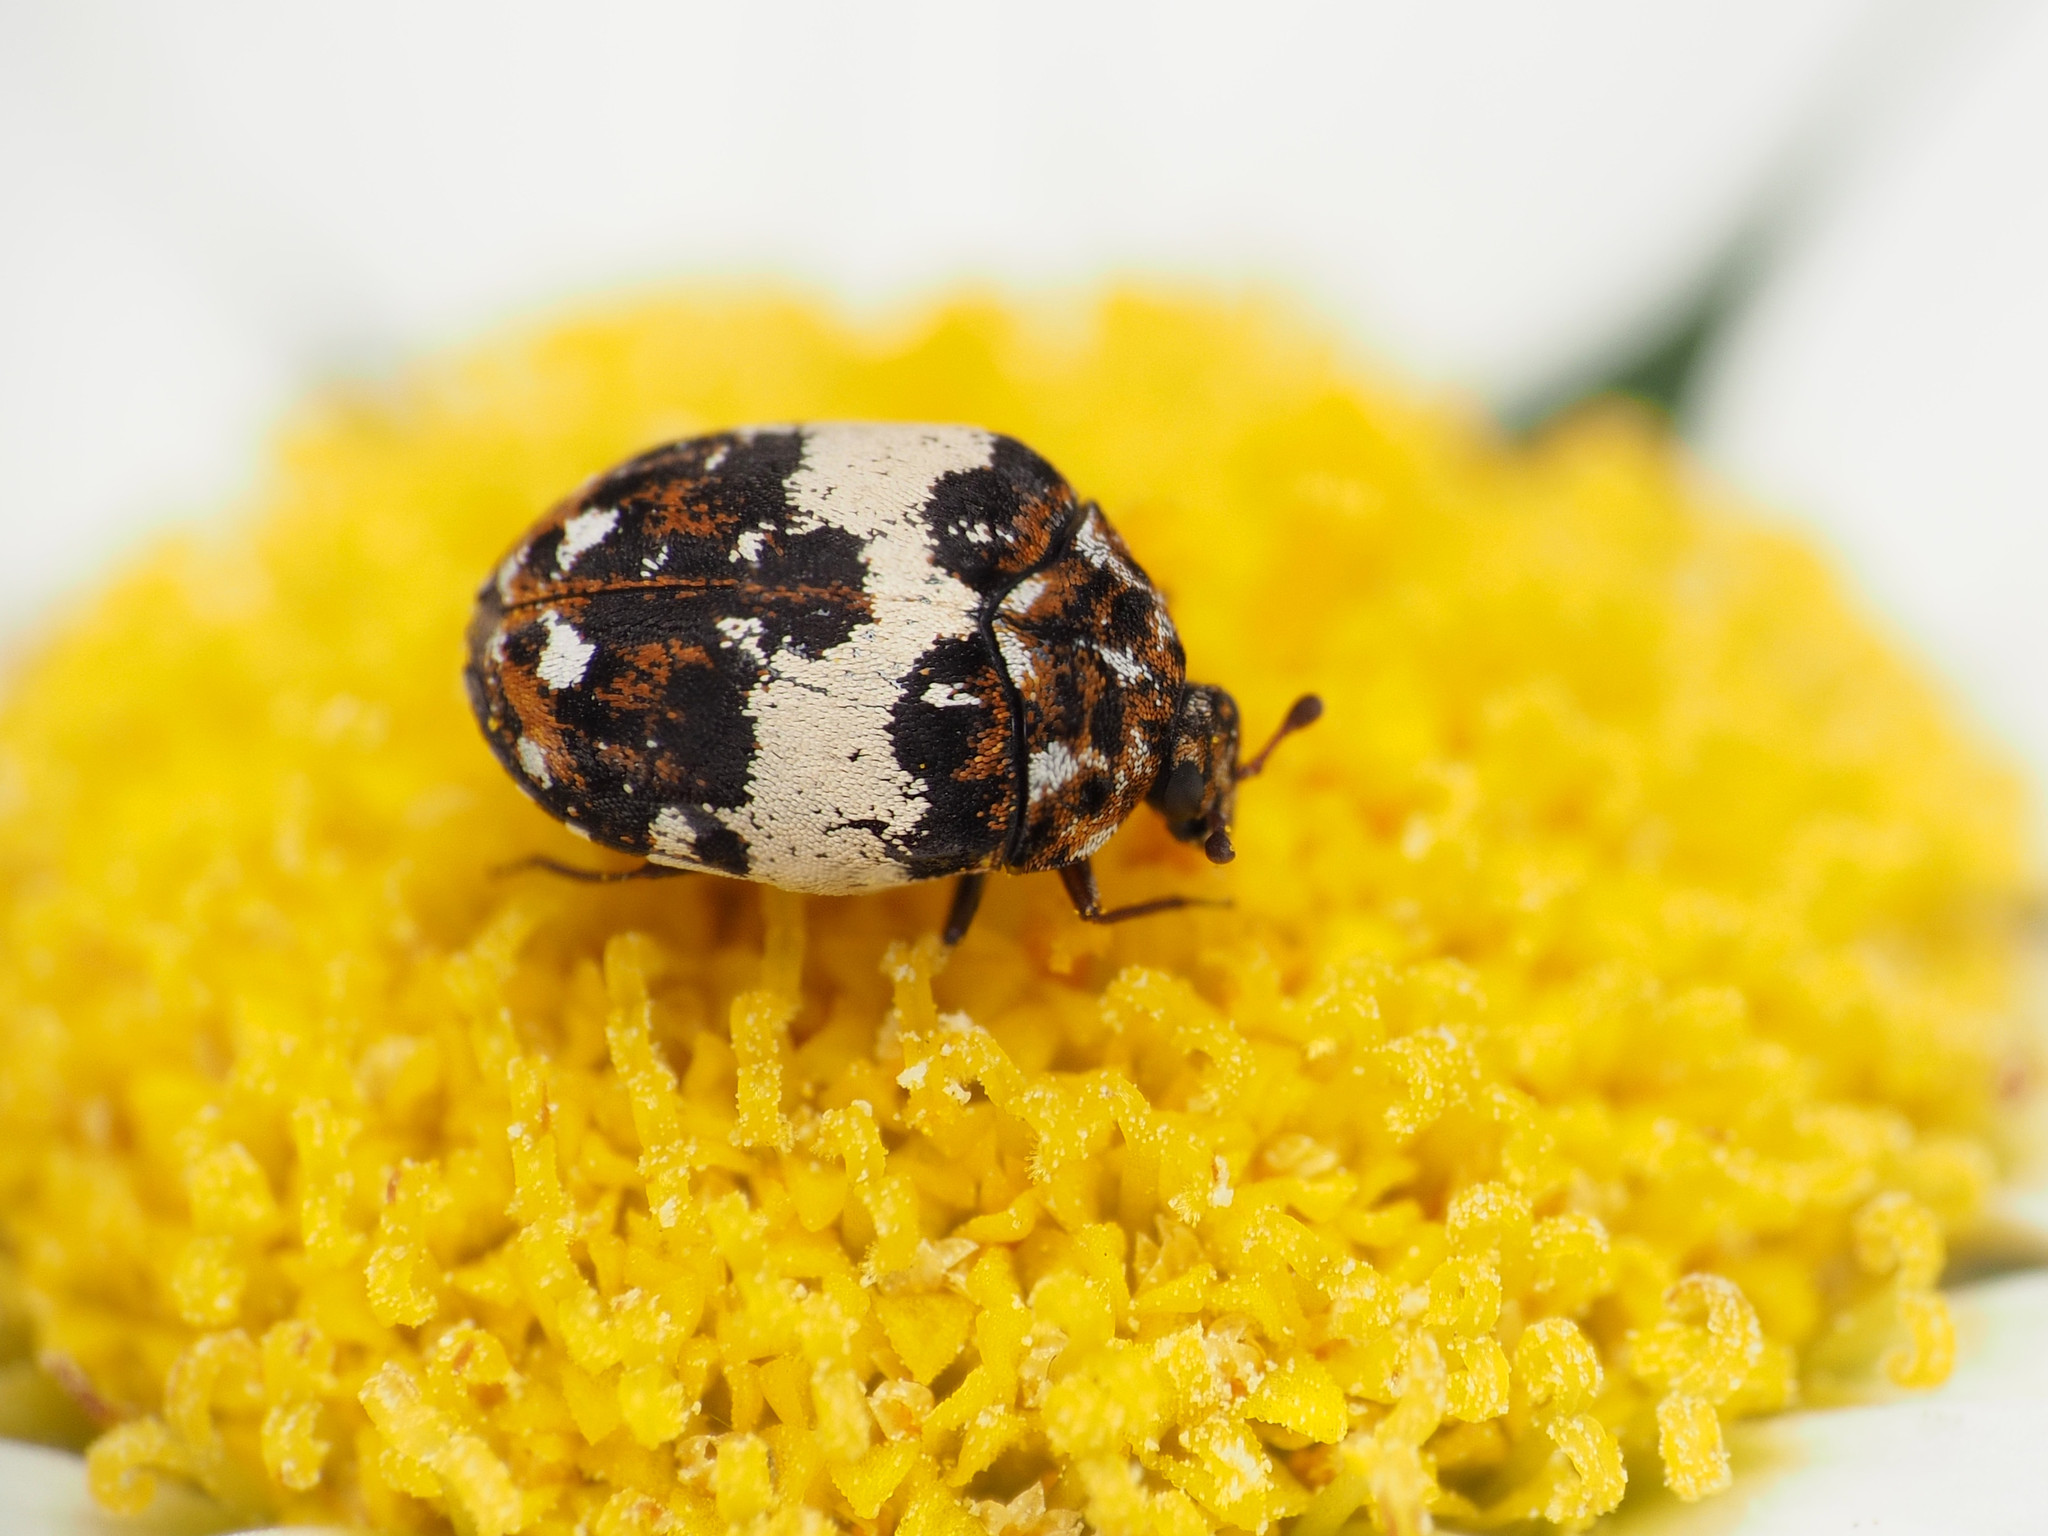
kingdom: Animalia
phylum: Arthropoda
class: Insecta
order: Coleoptera
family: Dermestidae
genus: Anthrenus
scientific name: Anthrenus isabellinus
